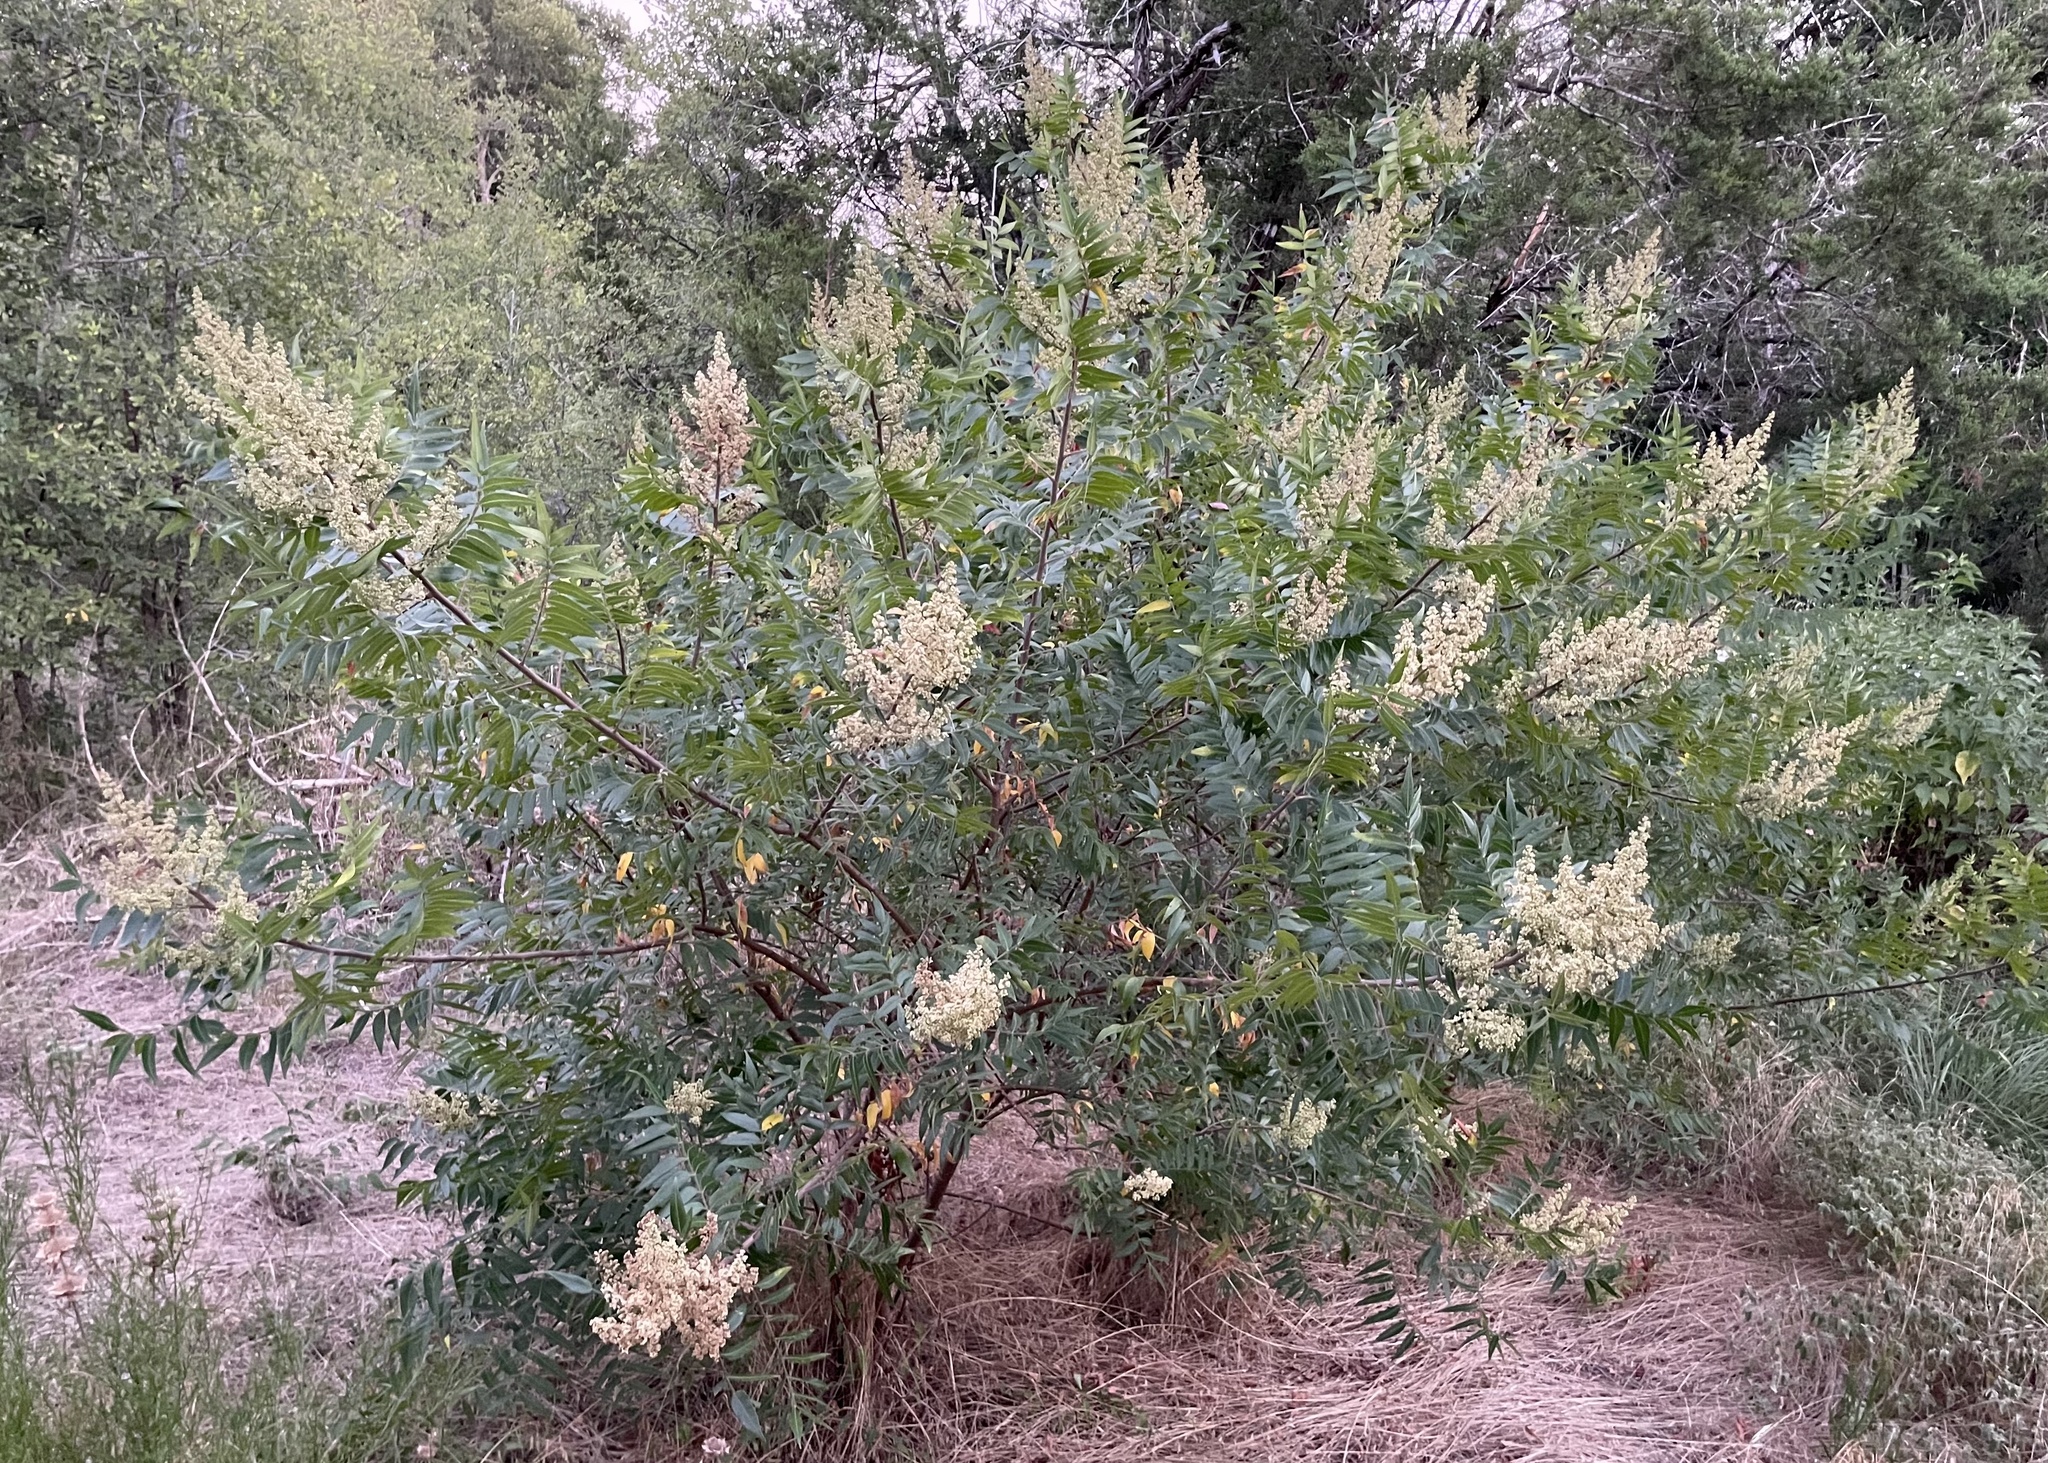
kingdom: Plantae
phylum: Tracheophyta
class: Magnoliopsida
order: Sapindales
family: Anacardiaceae
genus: Rhus
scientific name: Rhus lanceolata
